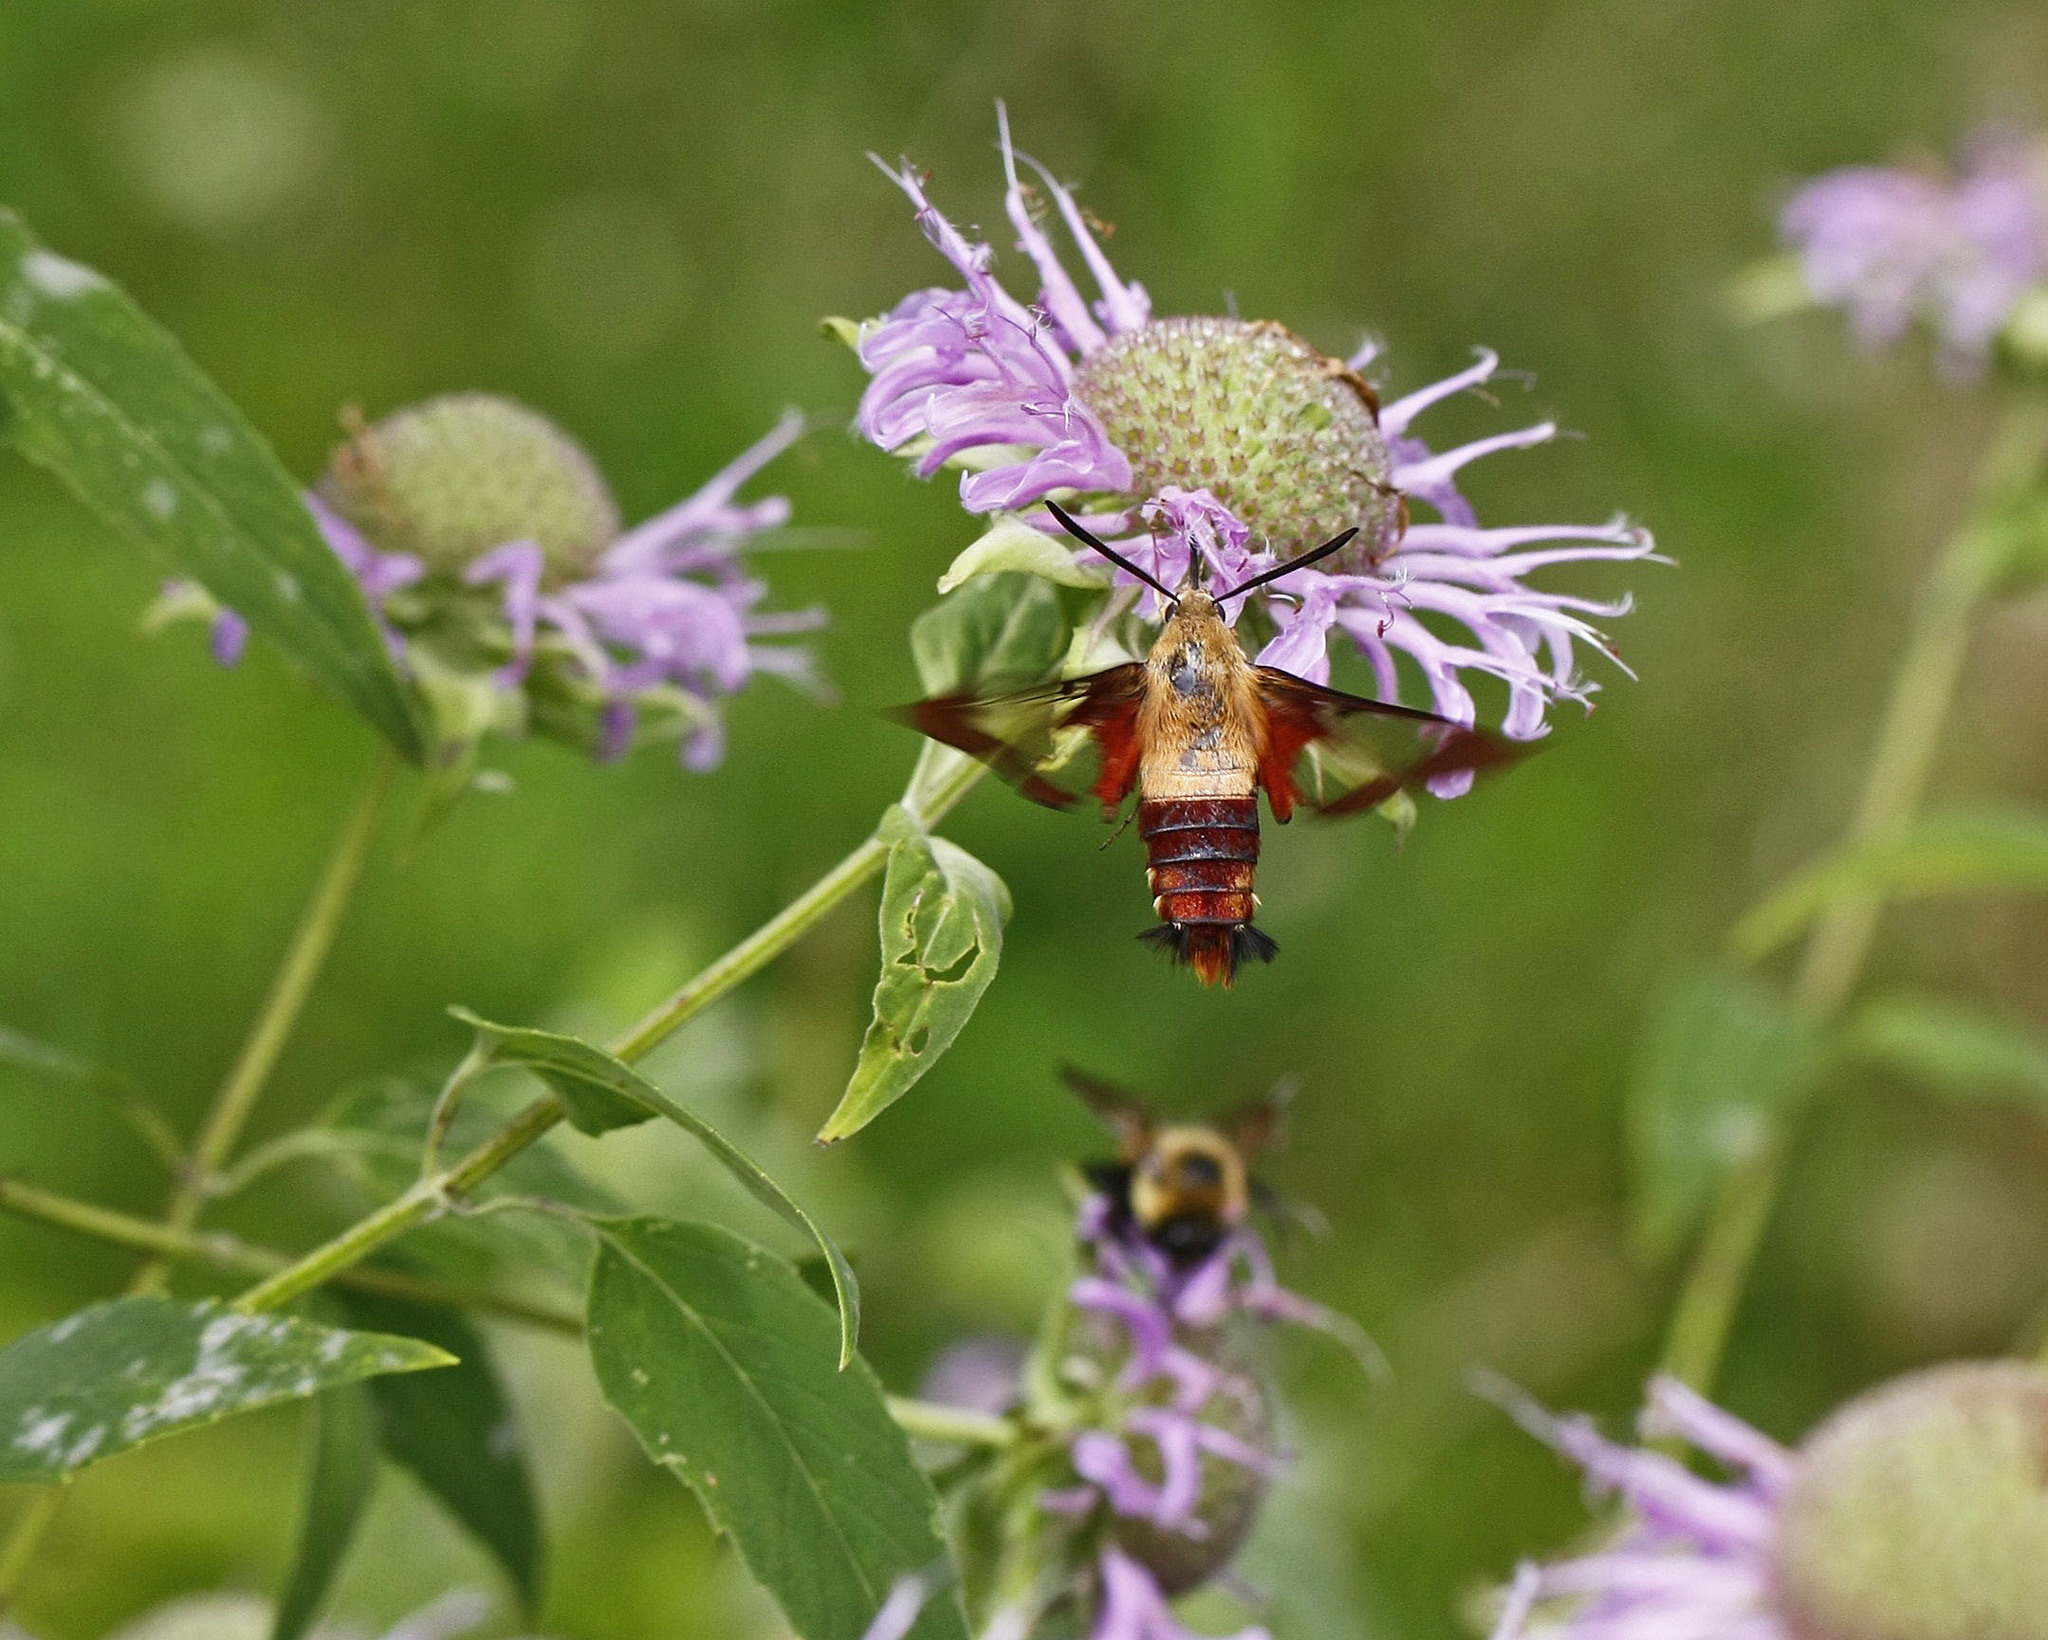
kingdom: Animalia
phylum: Arthropoda
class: Insecta
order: Lepidoptera
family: Sphingidae
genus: Hemaris
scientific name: Hemaris thysbe
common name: Common clear-wing
